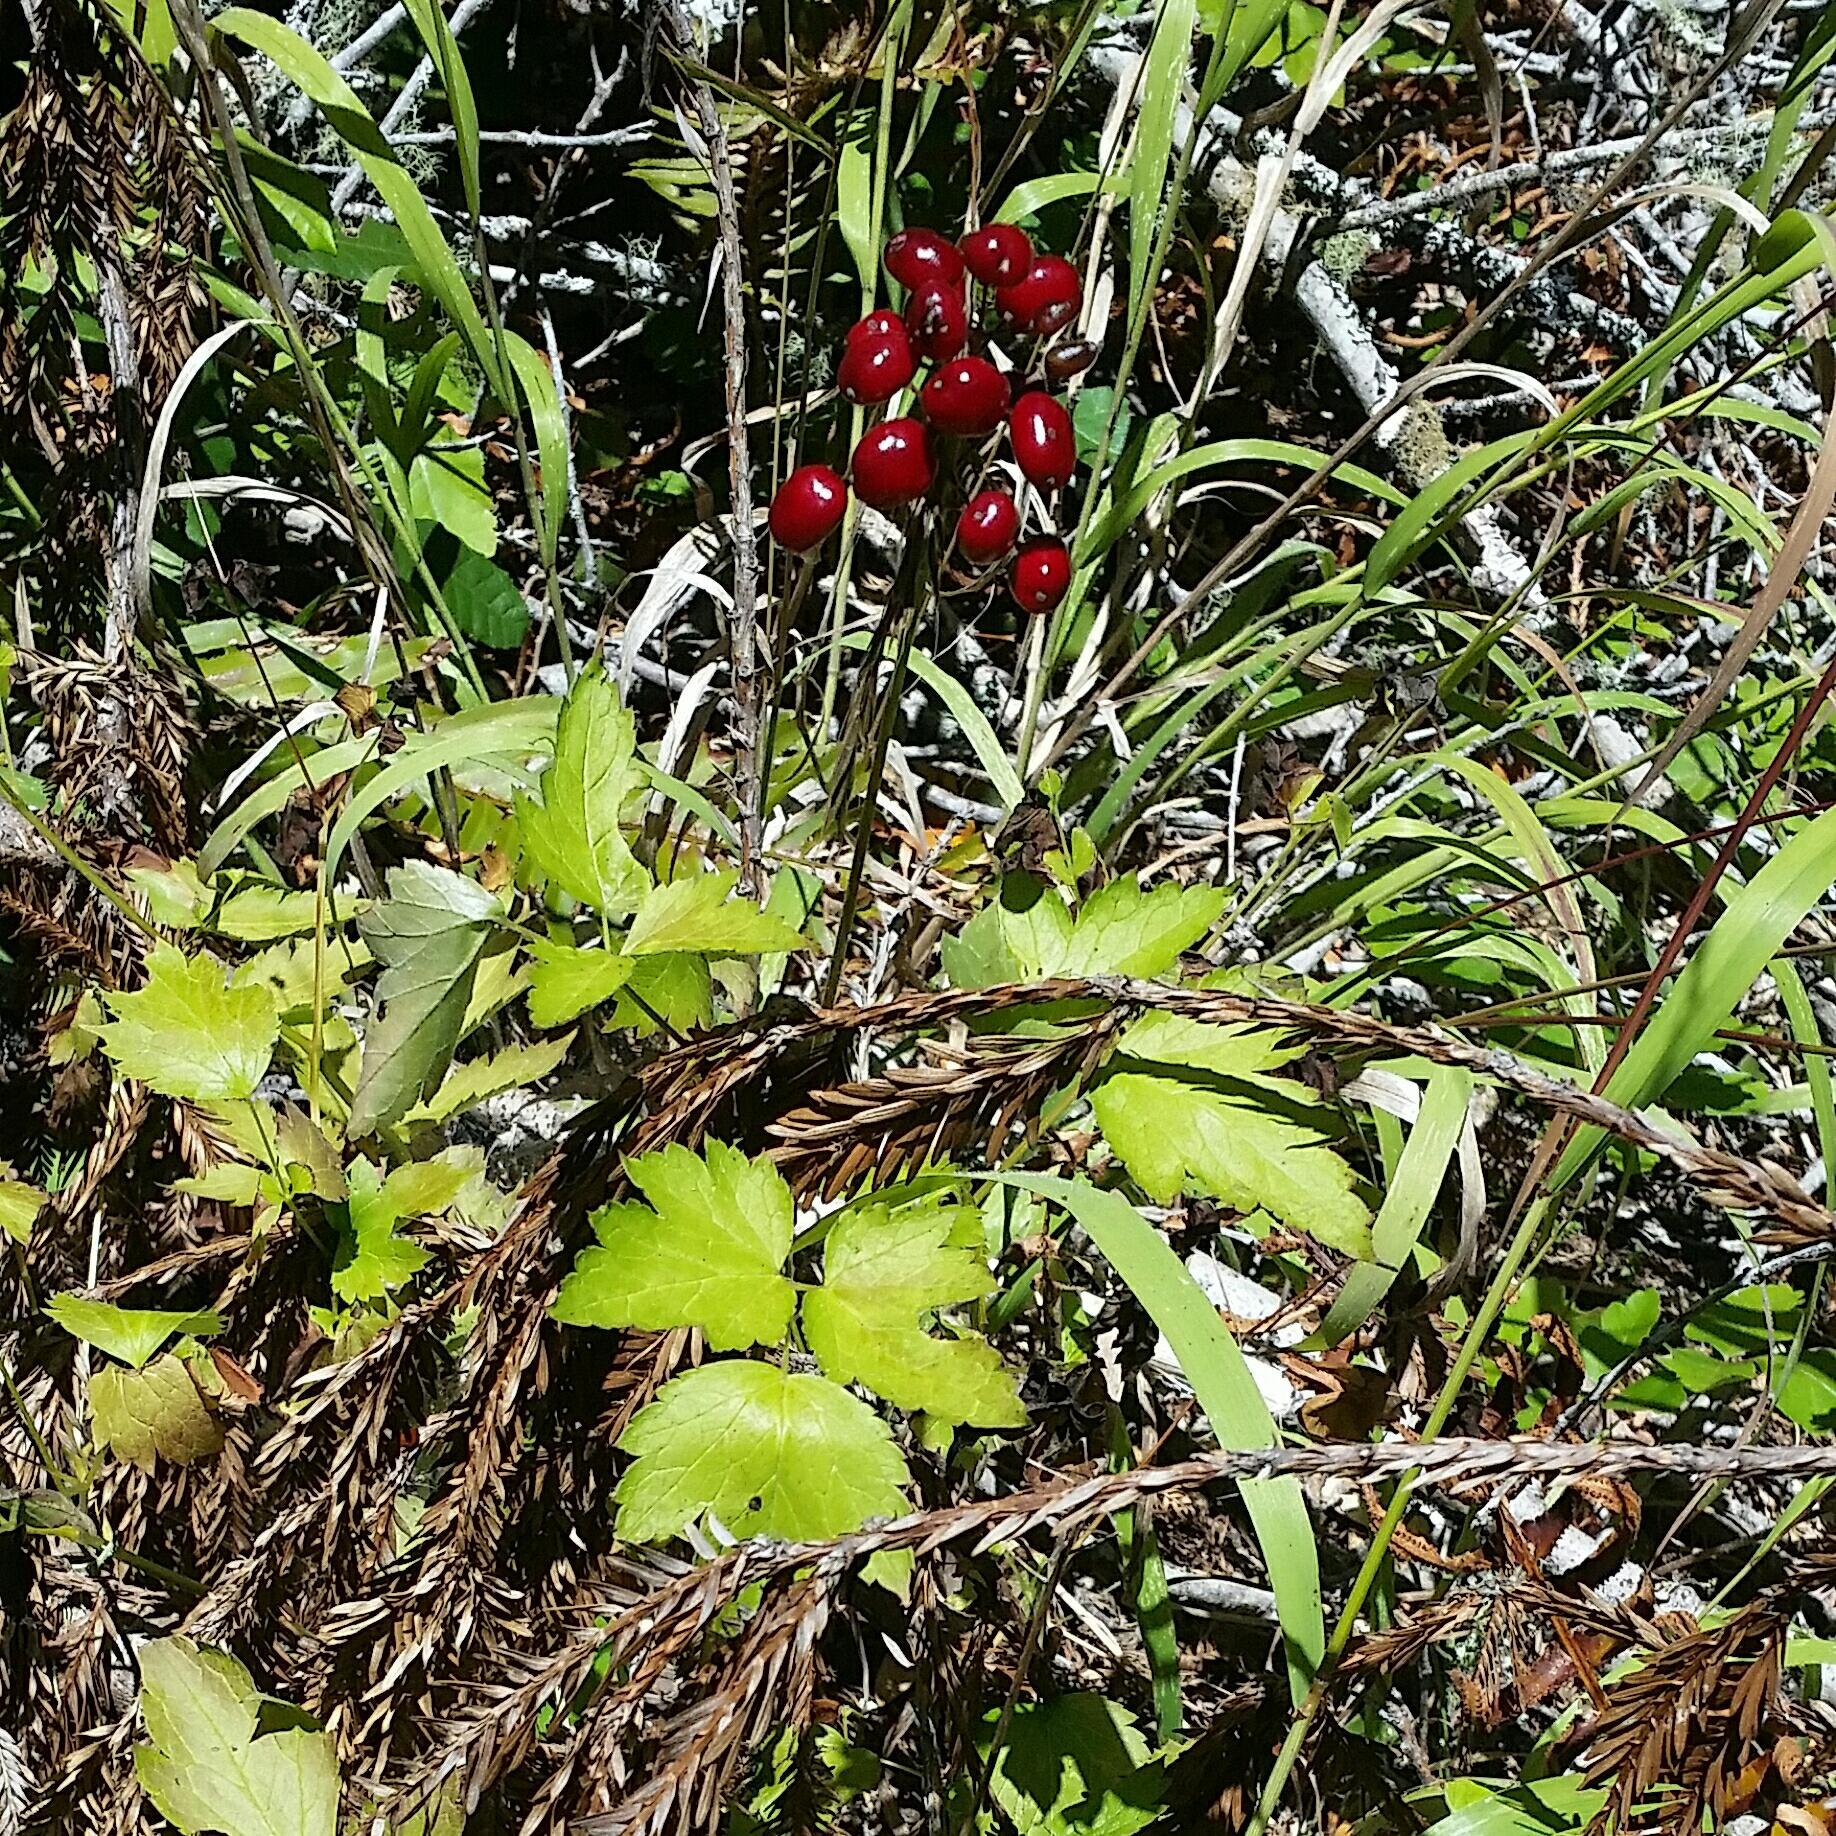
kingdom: Plantae
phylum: Tracheophyta
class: Magnoliopsida
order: Ranunculales
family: Ranunculaceae
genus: Actaea
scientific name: Actaea rubra
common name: Red baneberry
